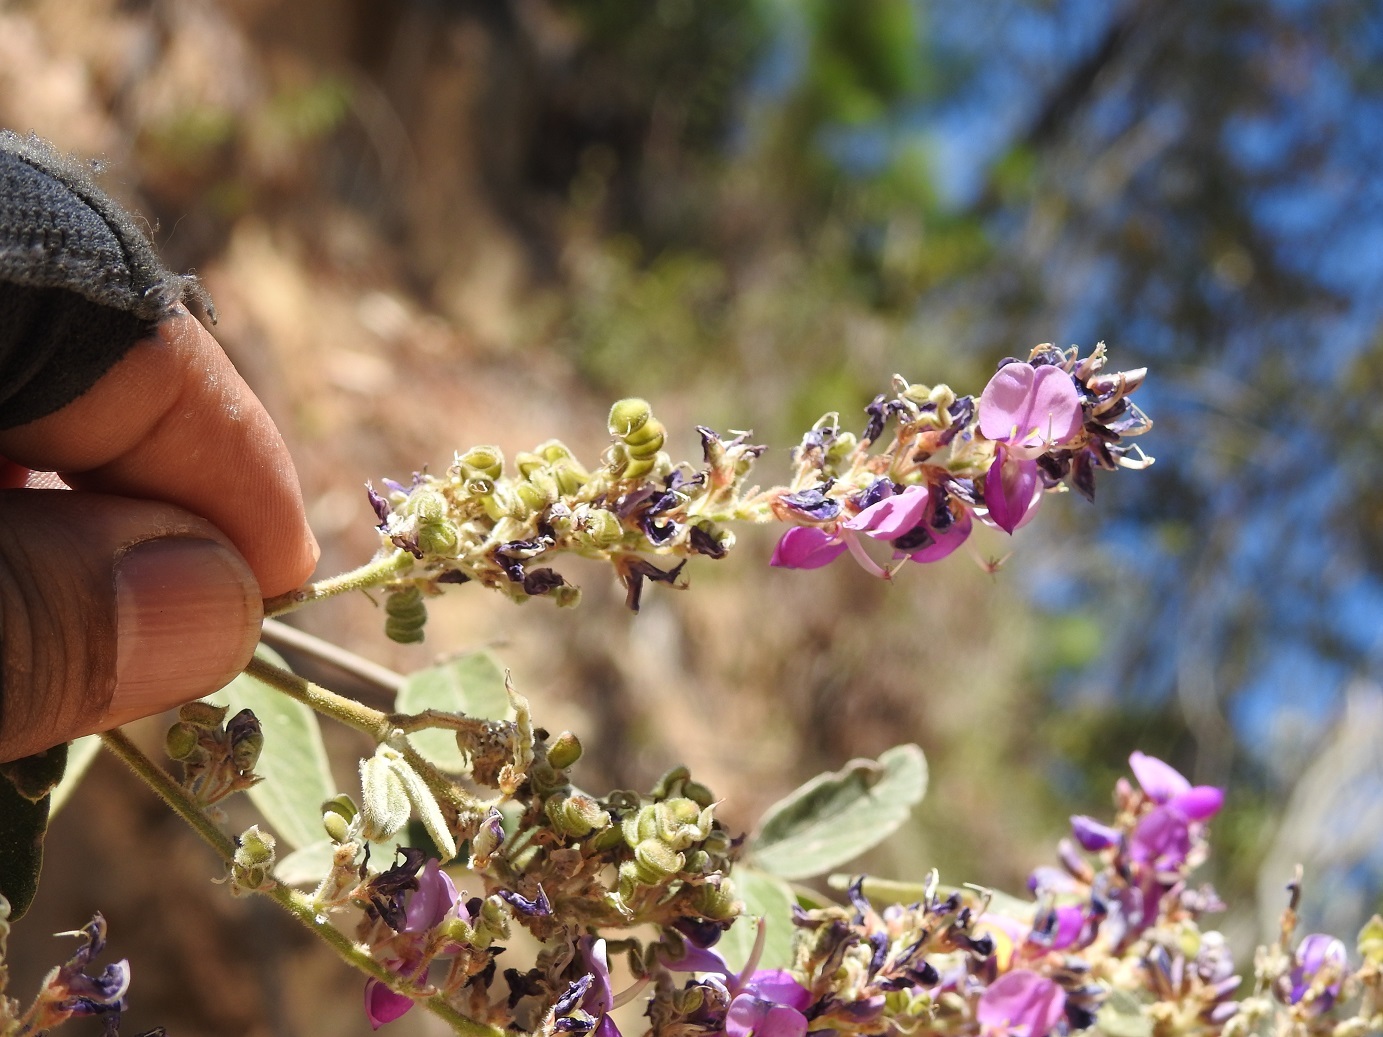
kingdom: Plantae
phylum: Tracheophyta
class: Magnoliopsida
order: Fabales
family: Fabaceae
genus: Desmodium
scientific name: Desmodium plicatum
